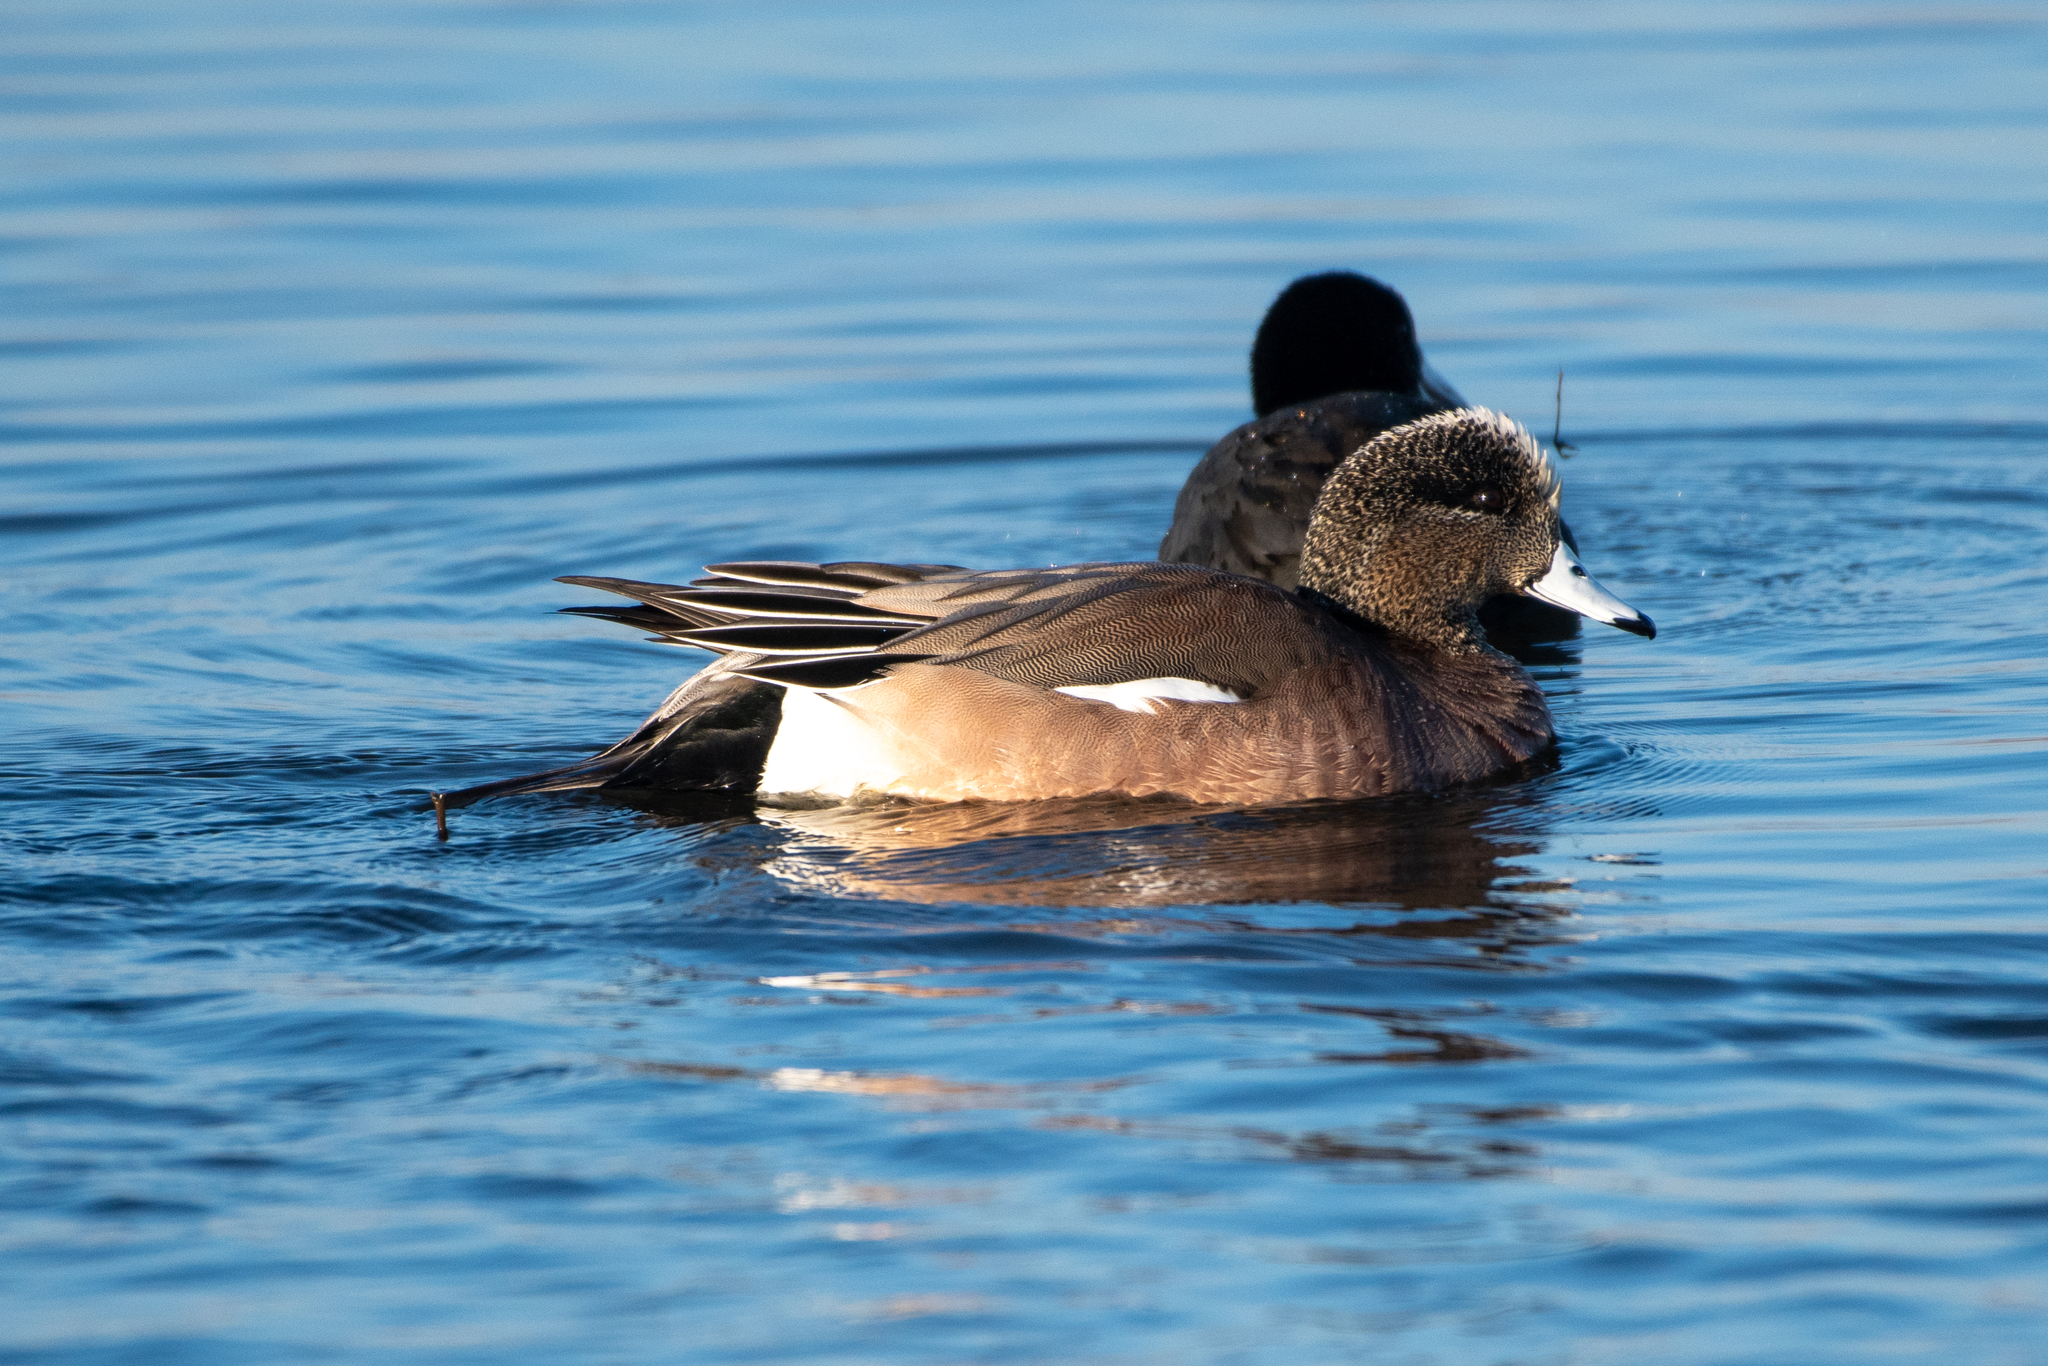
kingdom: Animalia
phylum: Chordata
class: Aves
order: Anseriformes
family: Anatidae
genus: Mareca
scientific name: Mareca americana
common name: American wigeon
